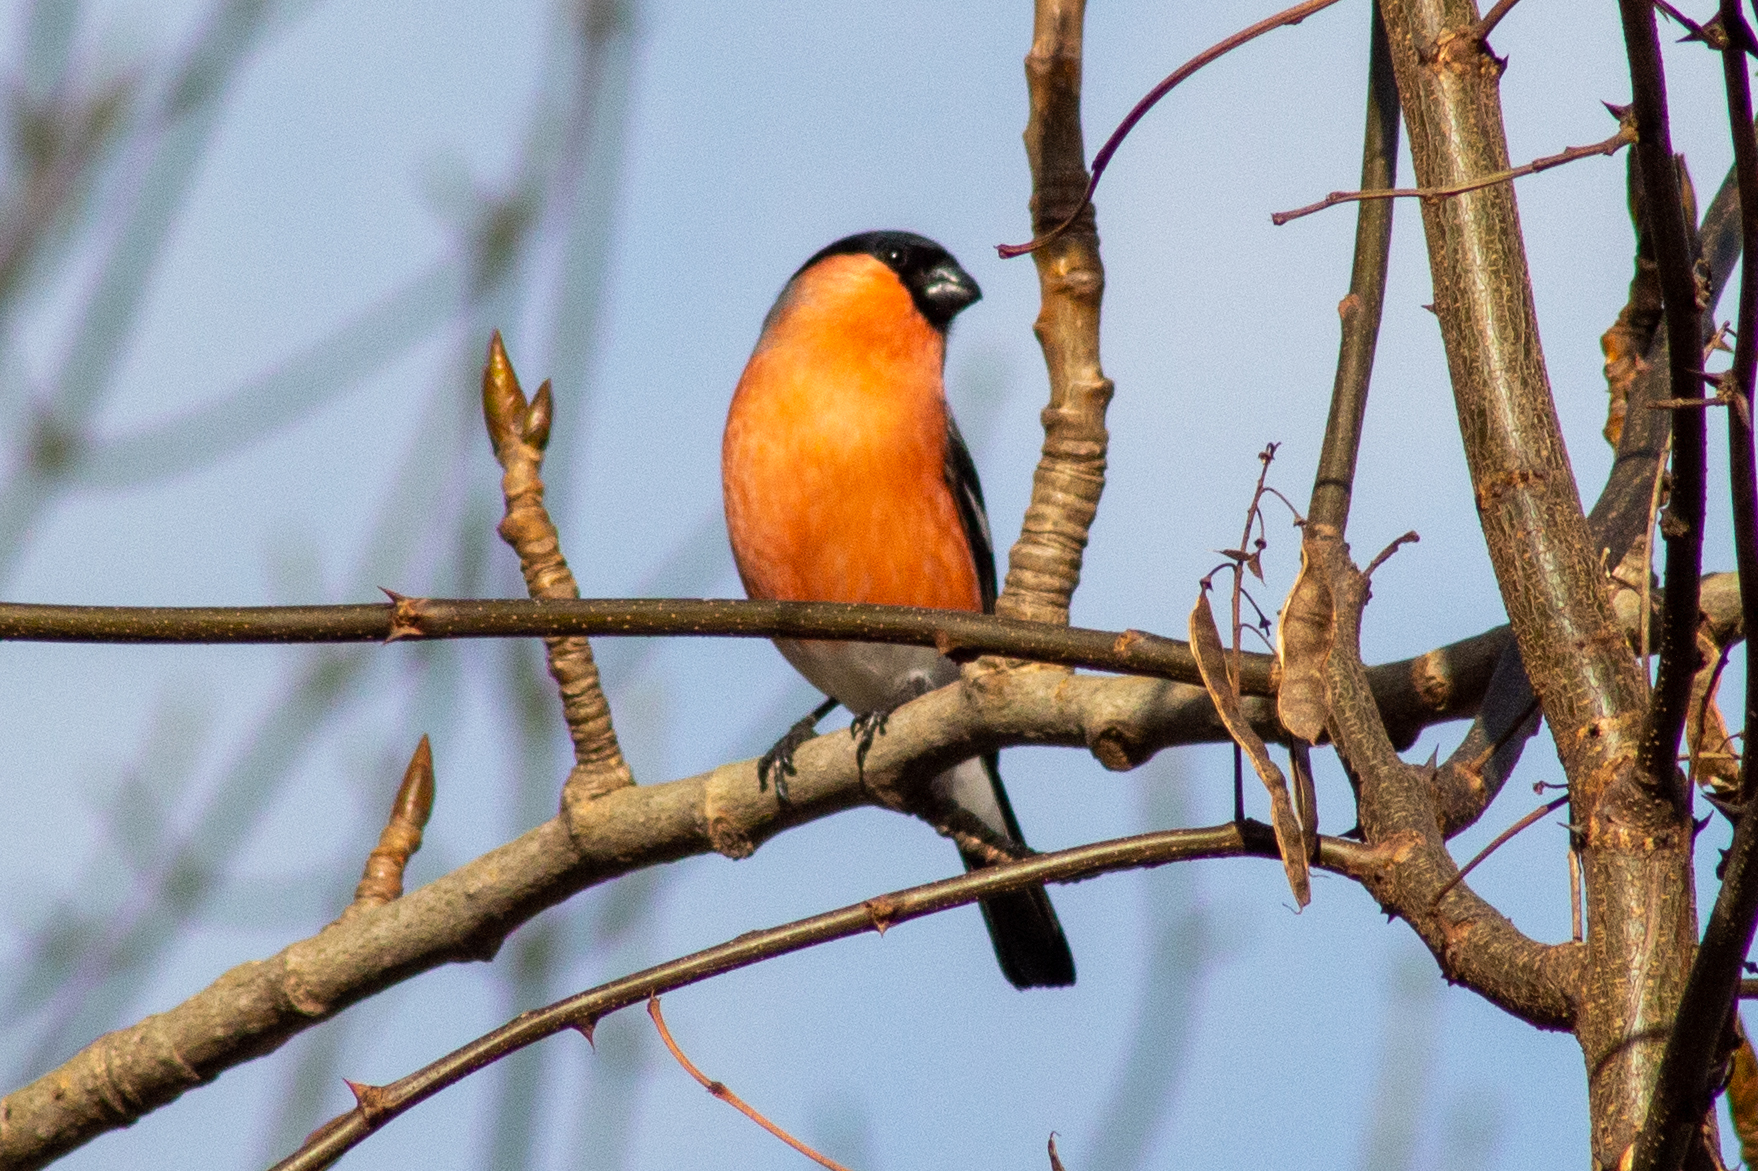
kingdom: Animalia
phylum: Chordata
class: Aves
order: Passeriformes
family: Fringillidae
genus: Pyrrhula
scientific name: Pyrrhula pyrrhula
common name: Eurasian bullfinch
